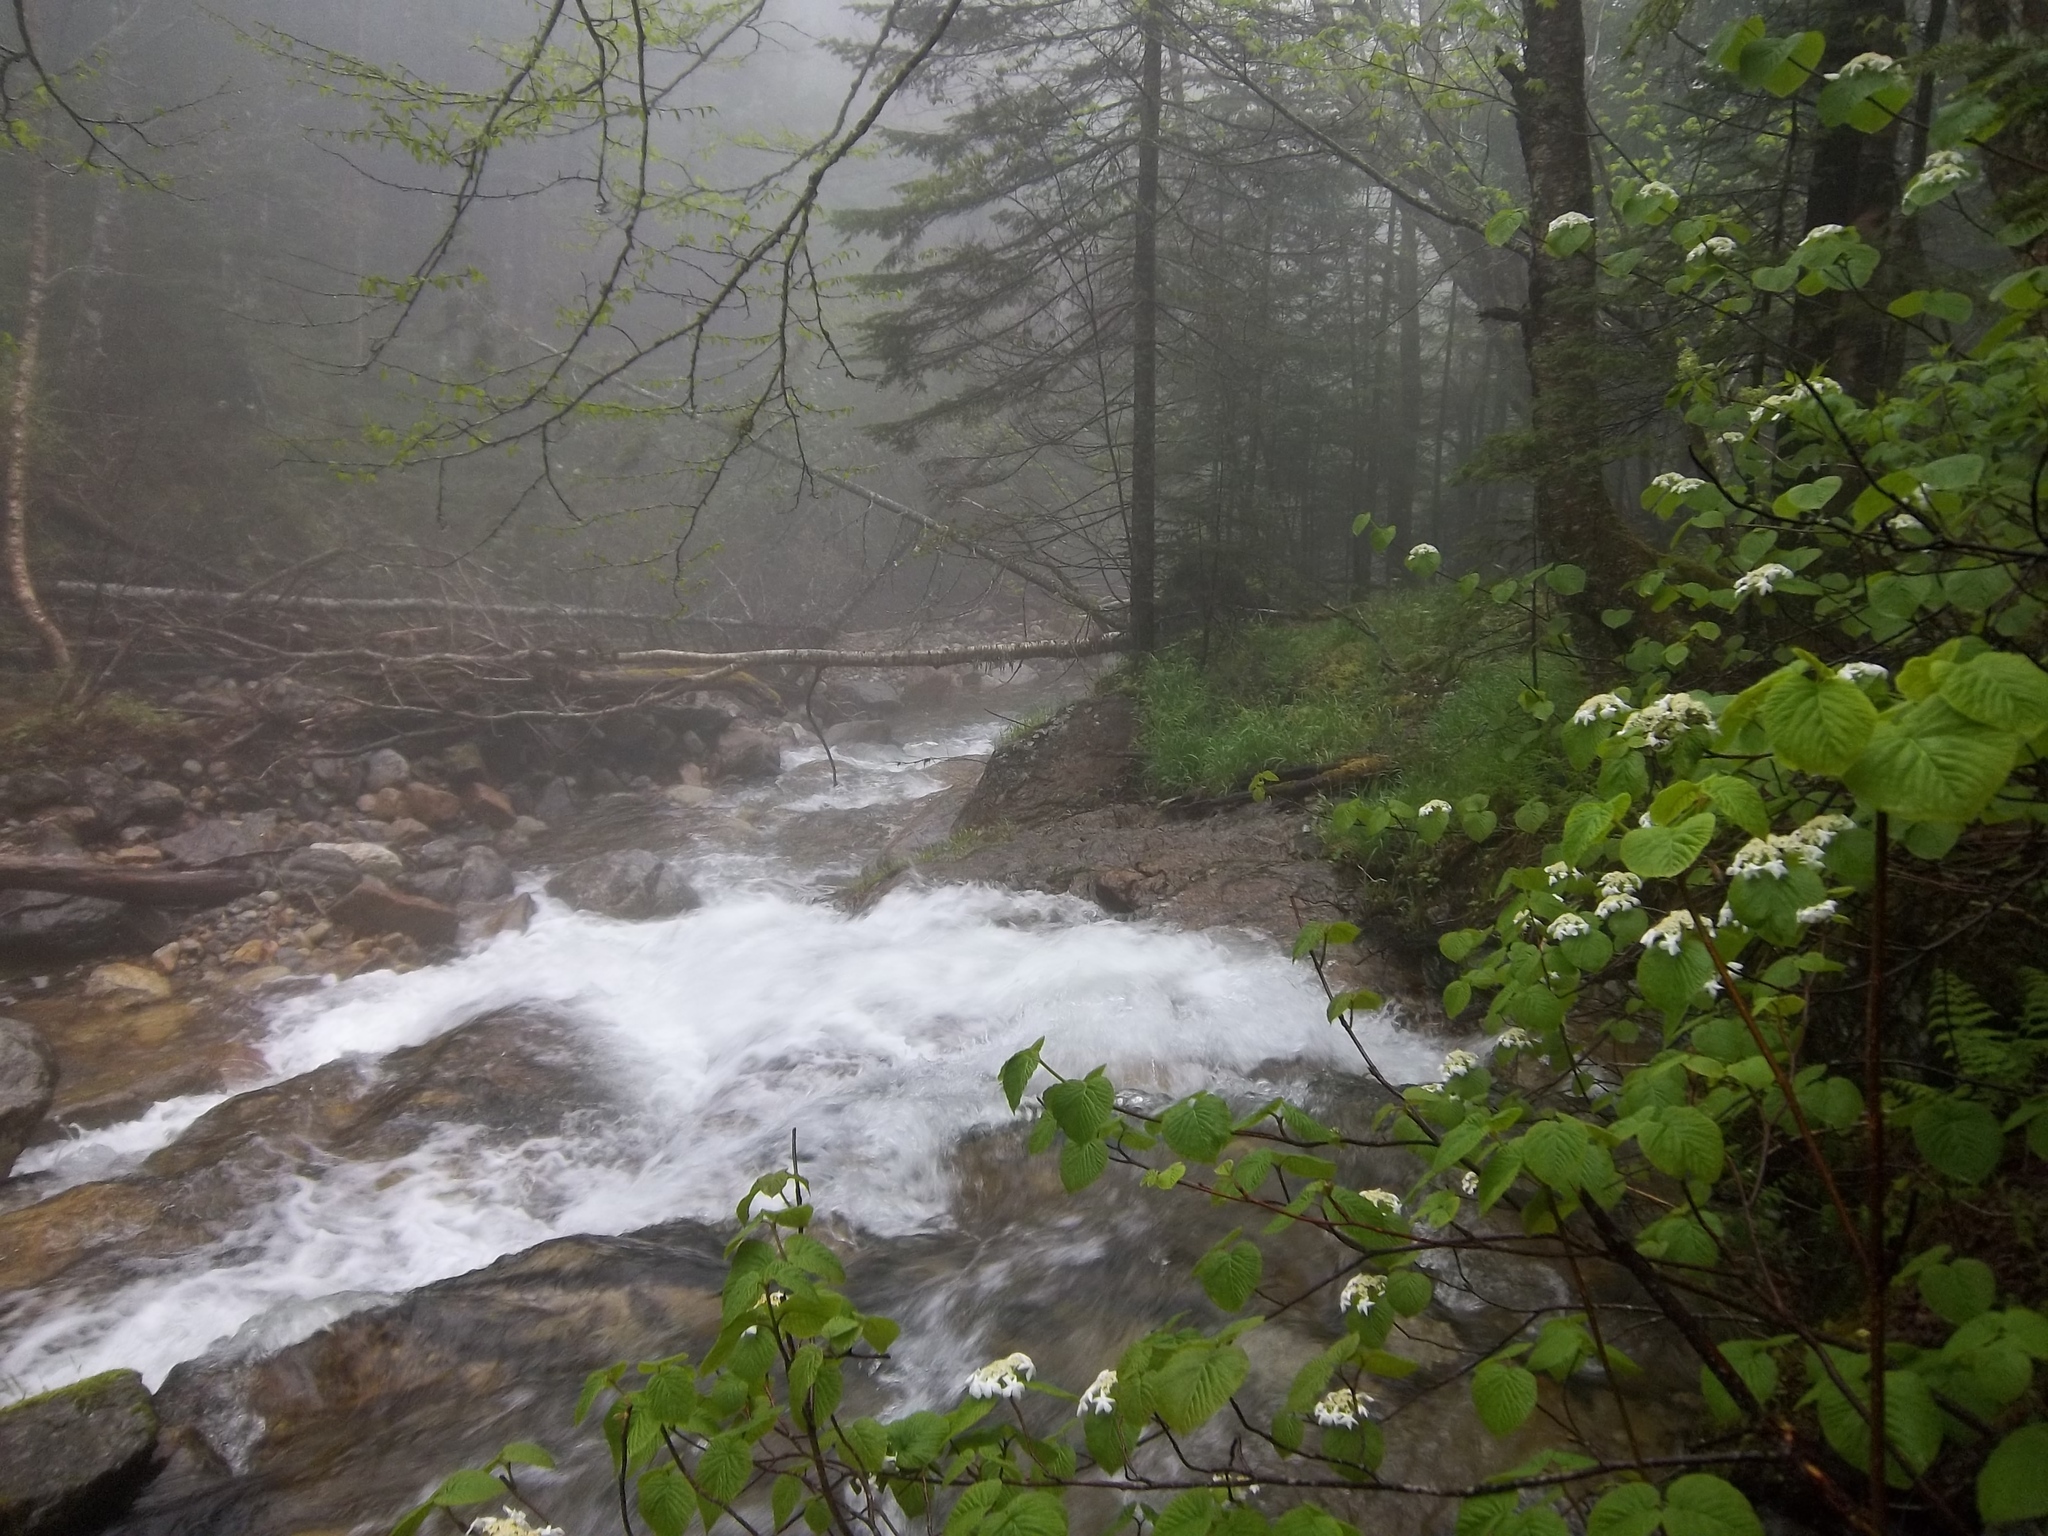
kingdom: Plantae
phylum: Tracheophyta
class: Magnoliopsida
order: Dipsacales
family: Viburnaceae
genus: Viburnum
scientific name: Viburnum lantanoides
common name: Hobblebush
